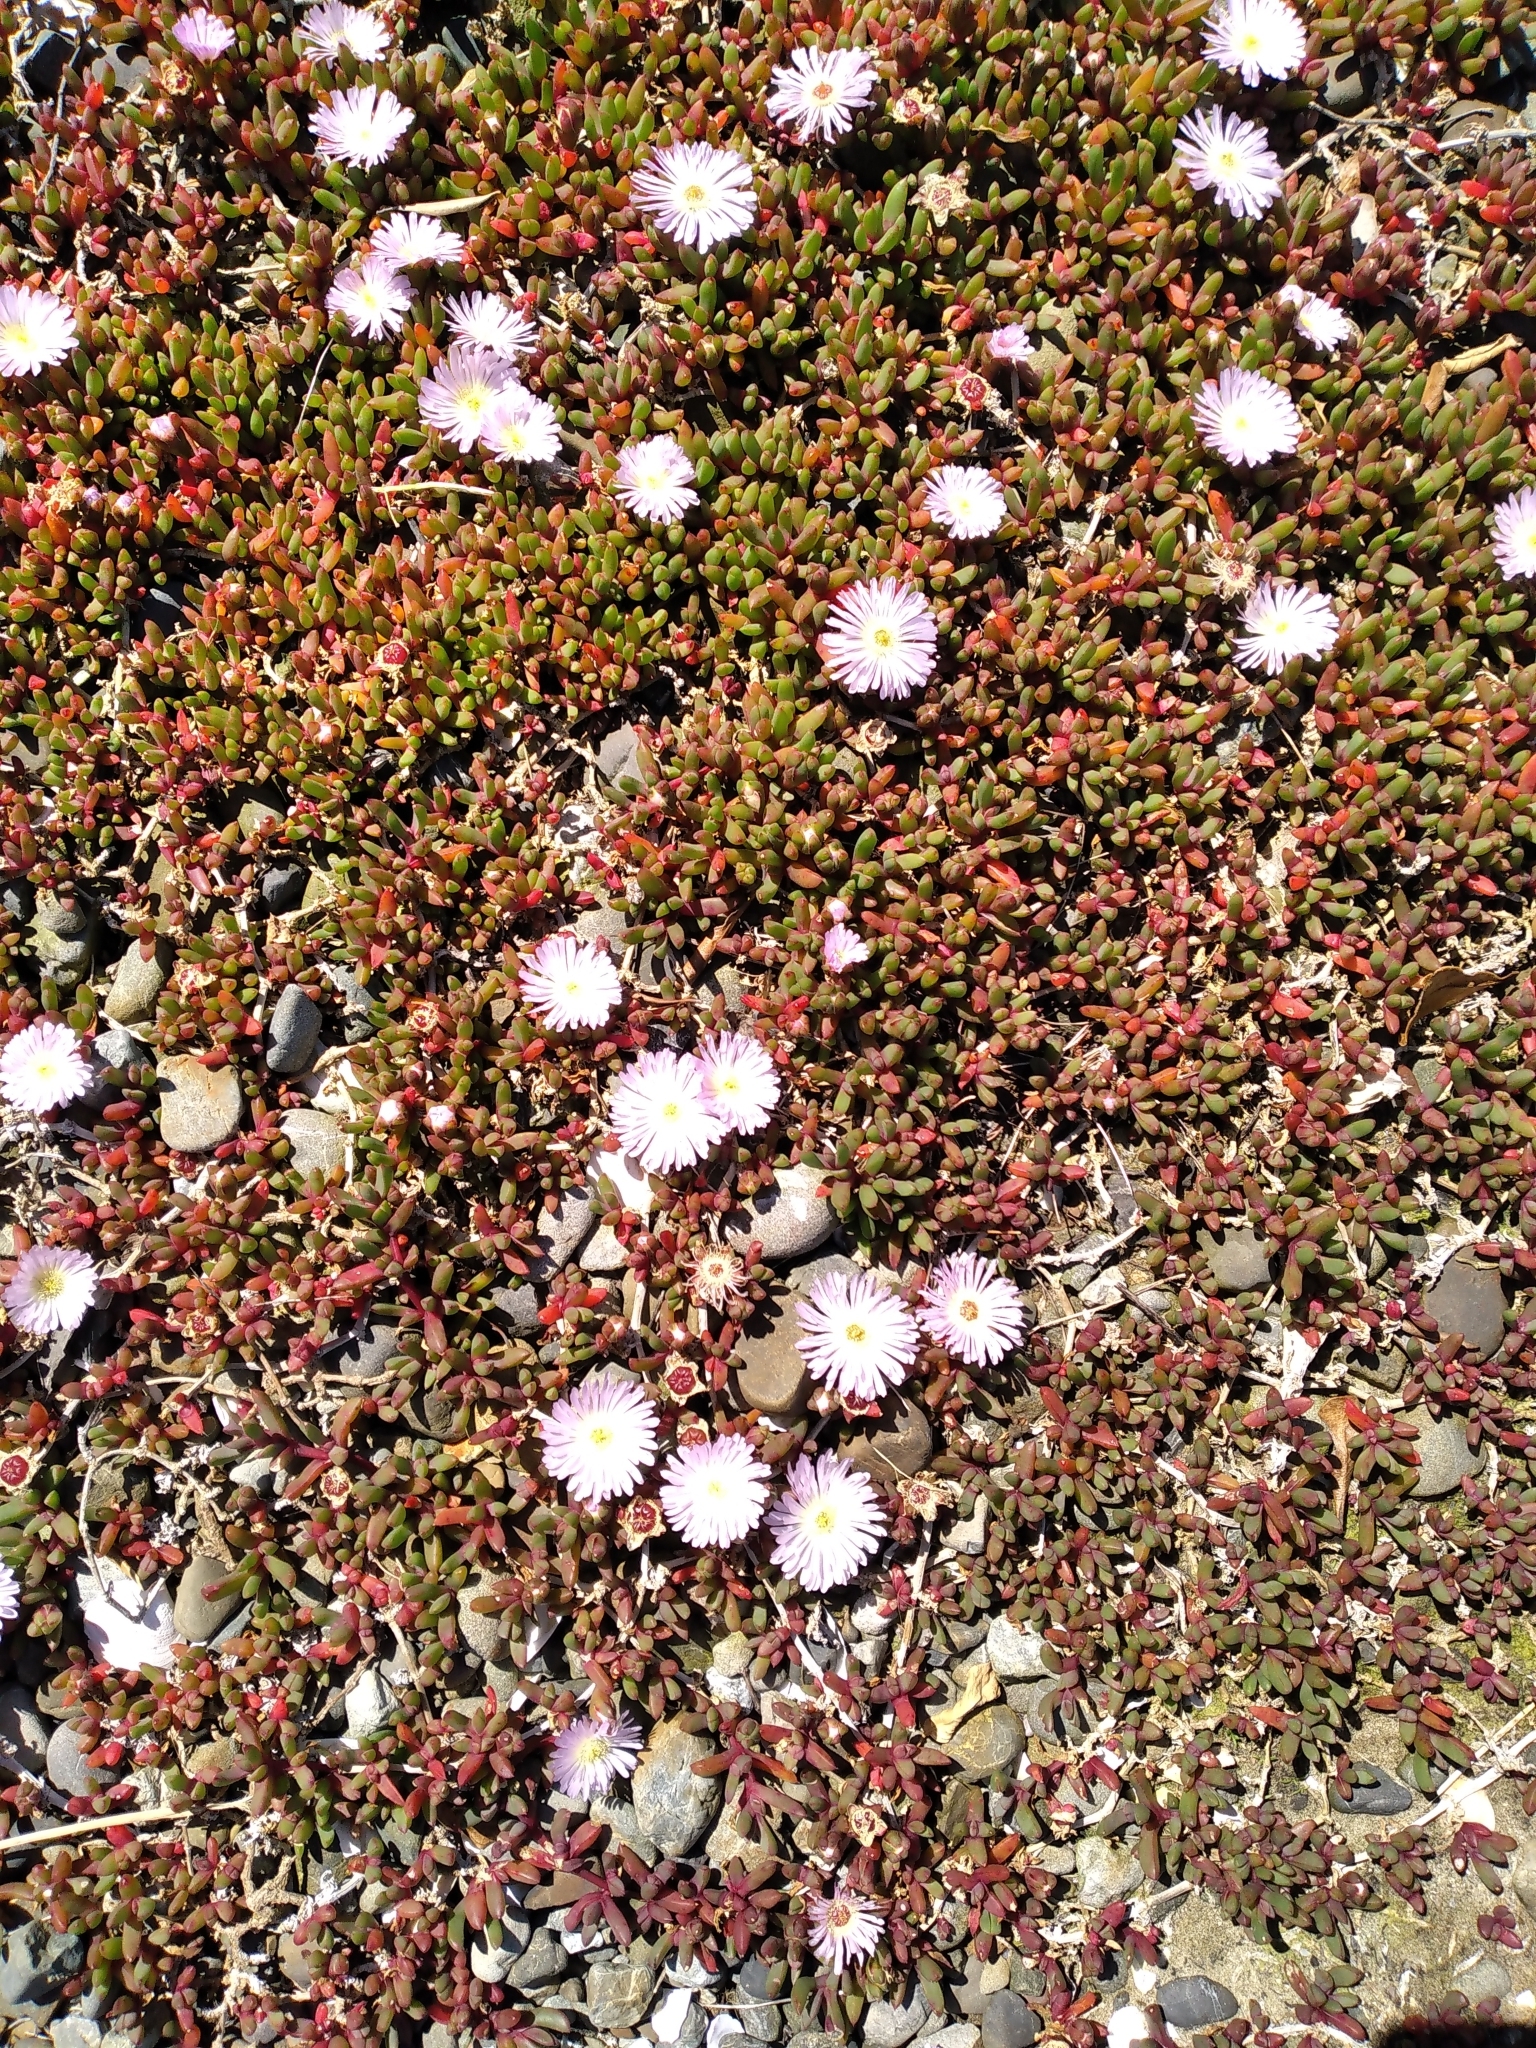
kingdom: Plantae
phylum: Tracheophyta
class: Magnoliopsida
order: Caryophyllales
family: Aizoaceae
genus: Disphyma
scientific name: Disphyma australe
